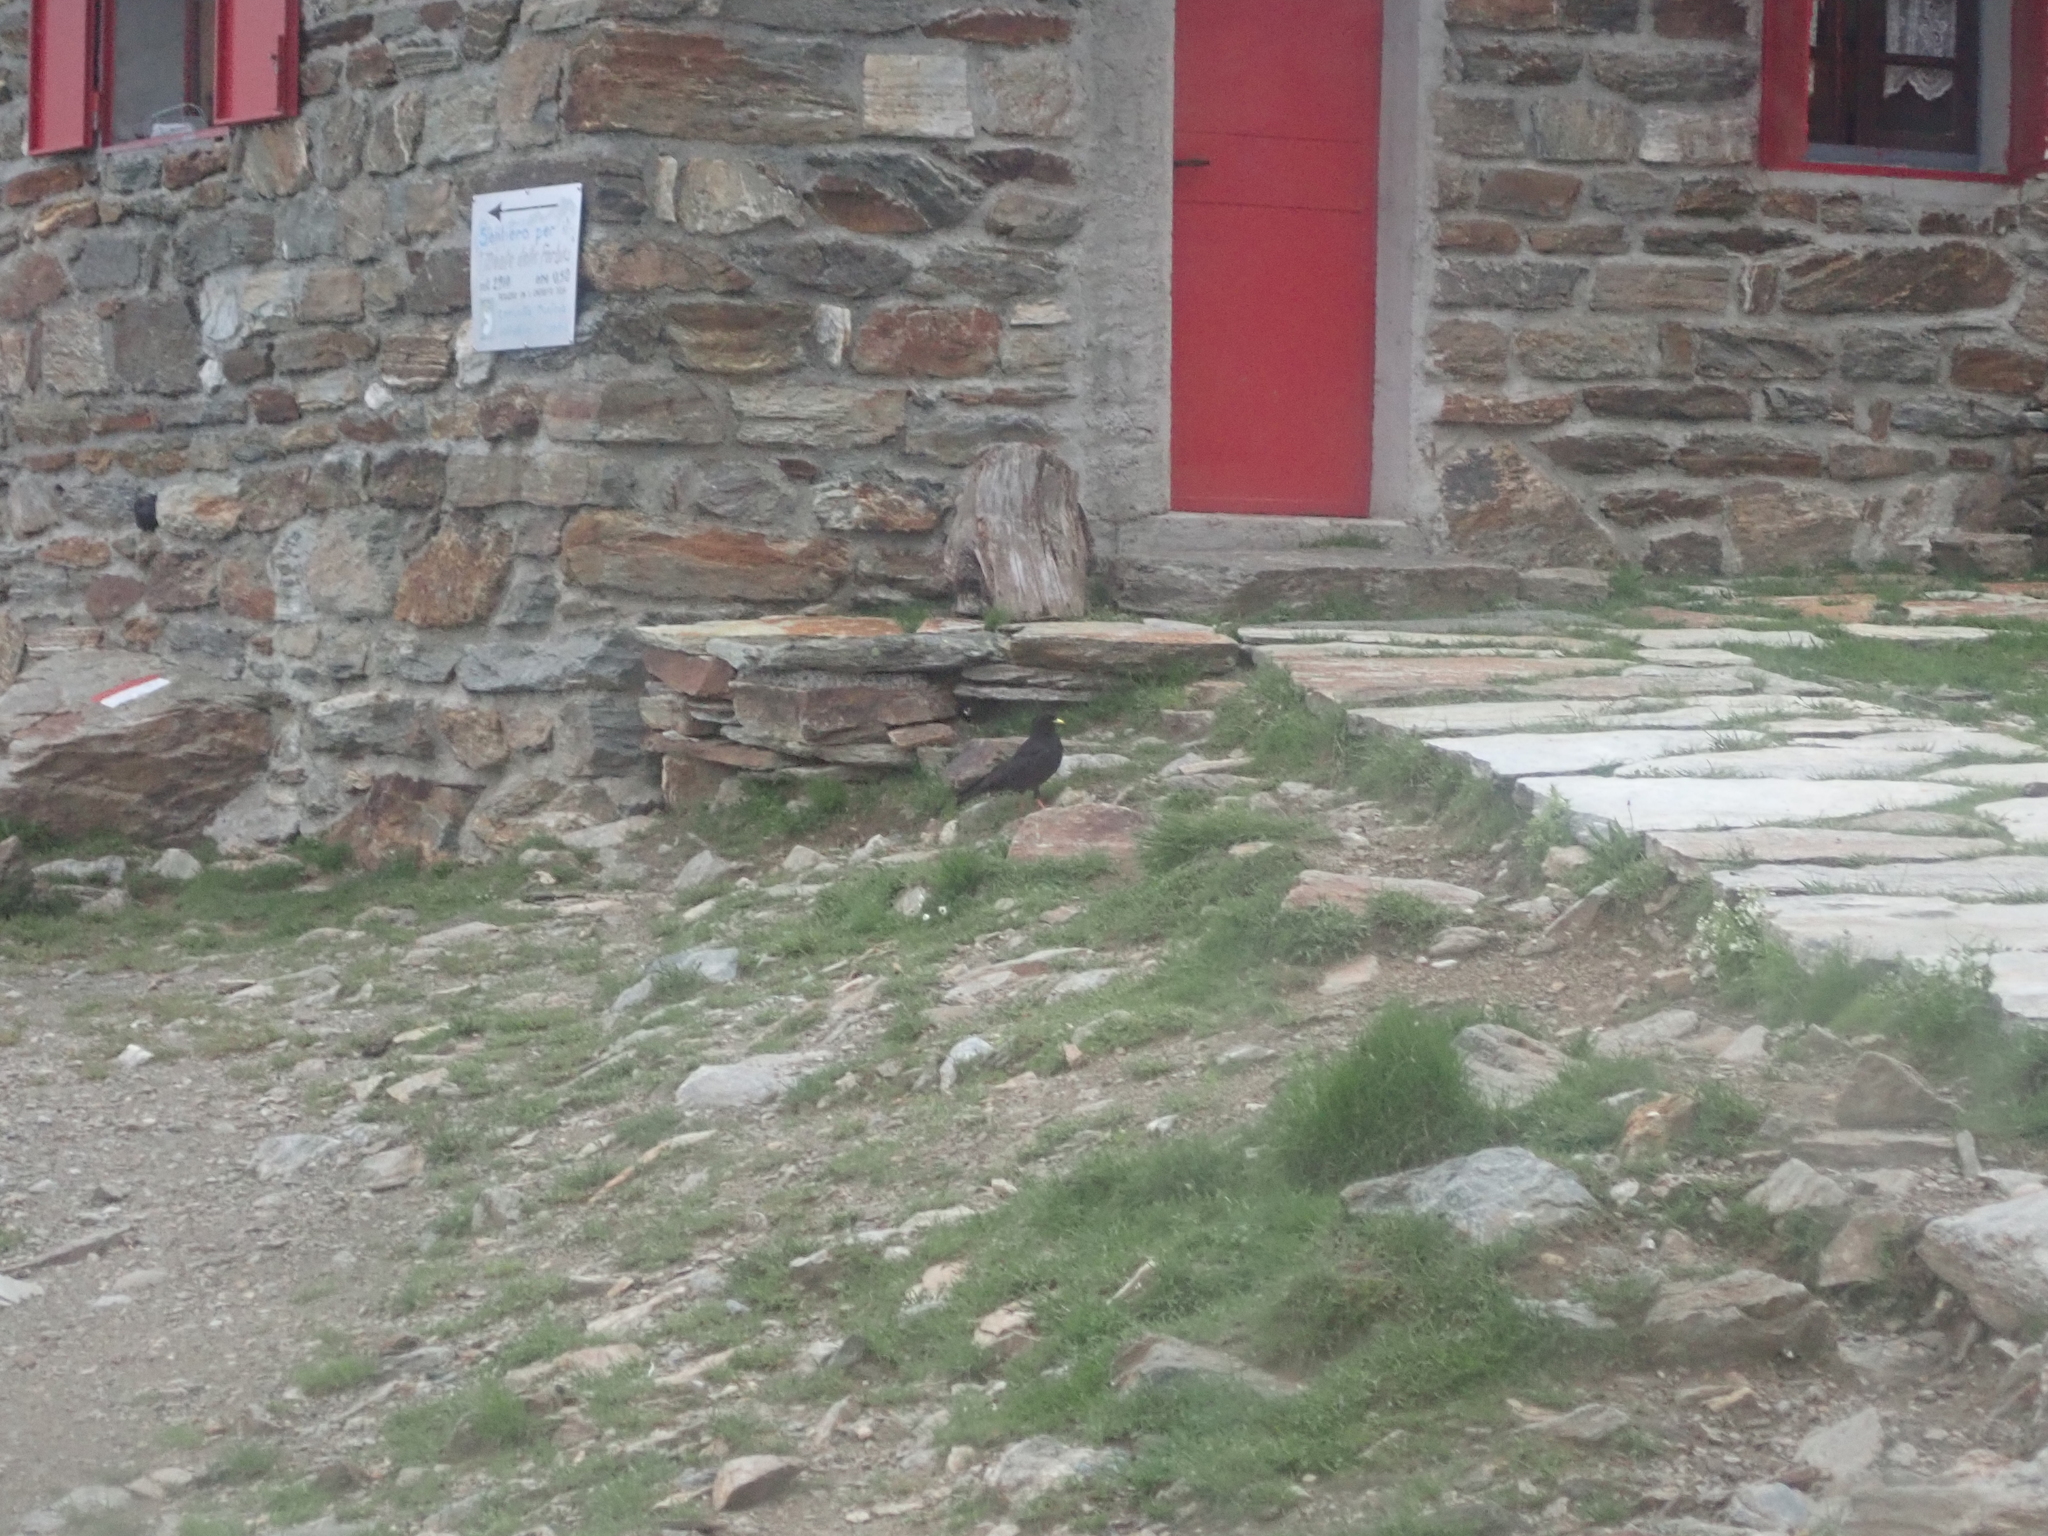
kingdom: Animalia
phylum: Chordata
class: Aves
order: Passeriformes
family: Corvidae
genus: Pyrrhocorax
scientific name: Pyrrhocorax graculus
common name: Alpine chough
